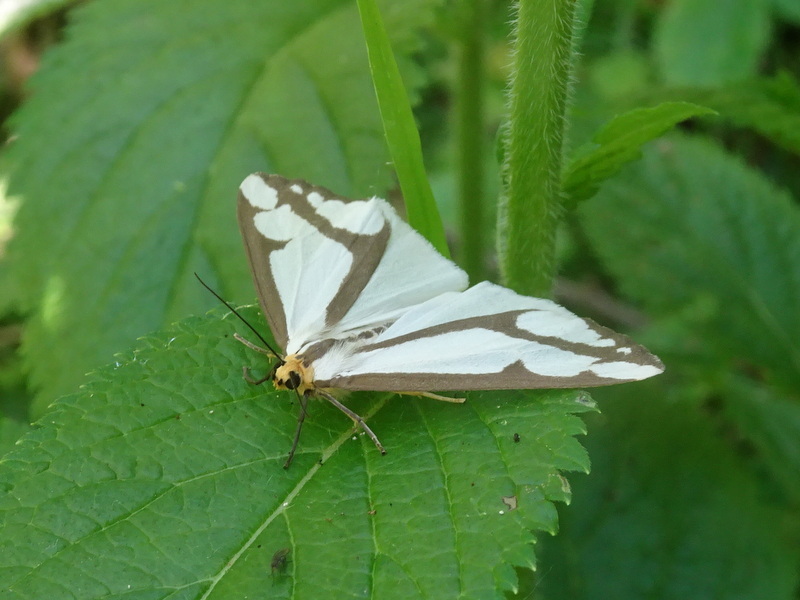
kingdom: Animalia
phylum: Arthropoda
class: Insecta
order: Lepidoptera
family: Erebidae
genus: Haploa
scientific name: Haploa lecontei
